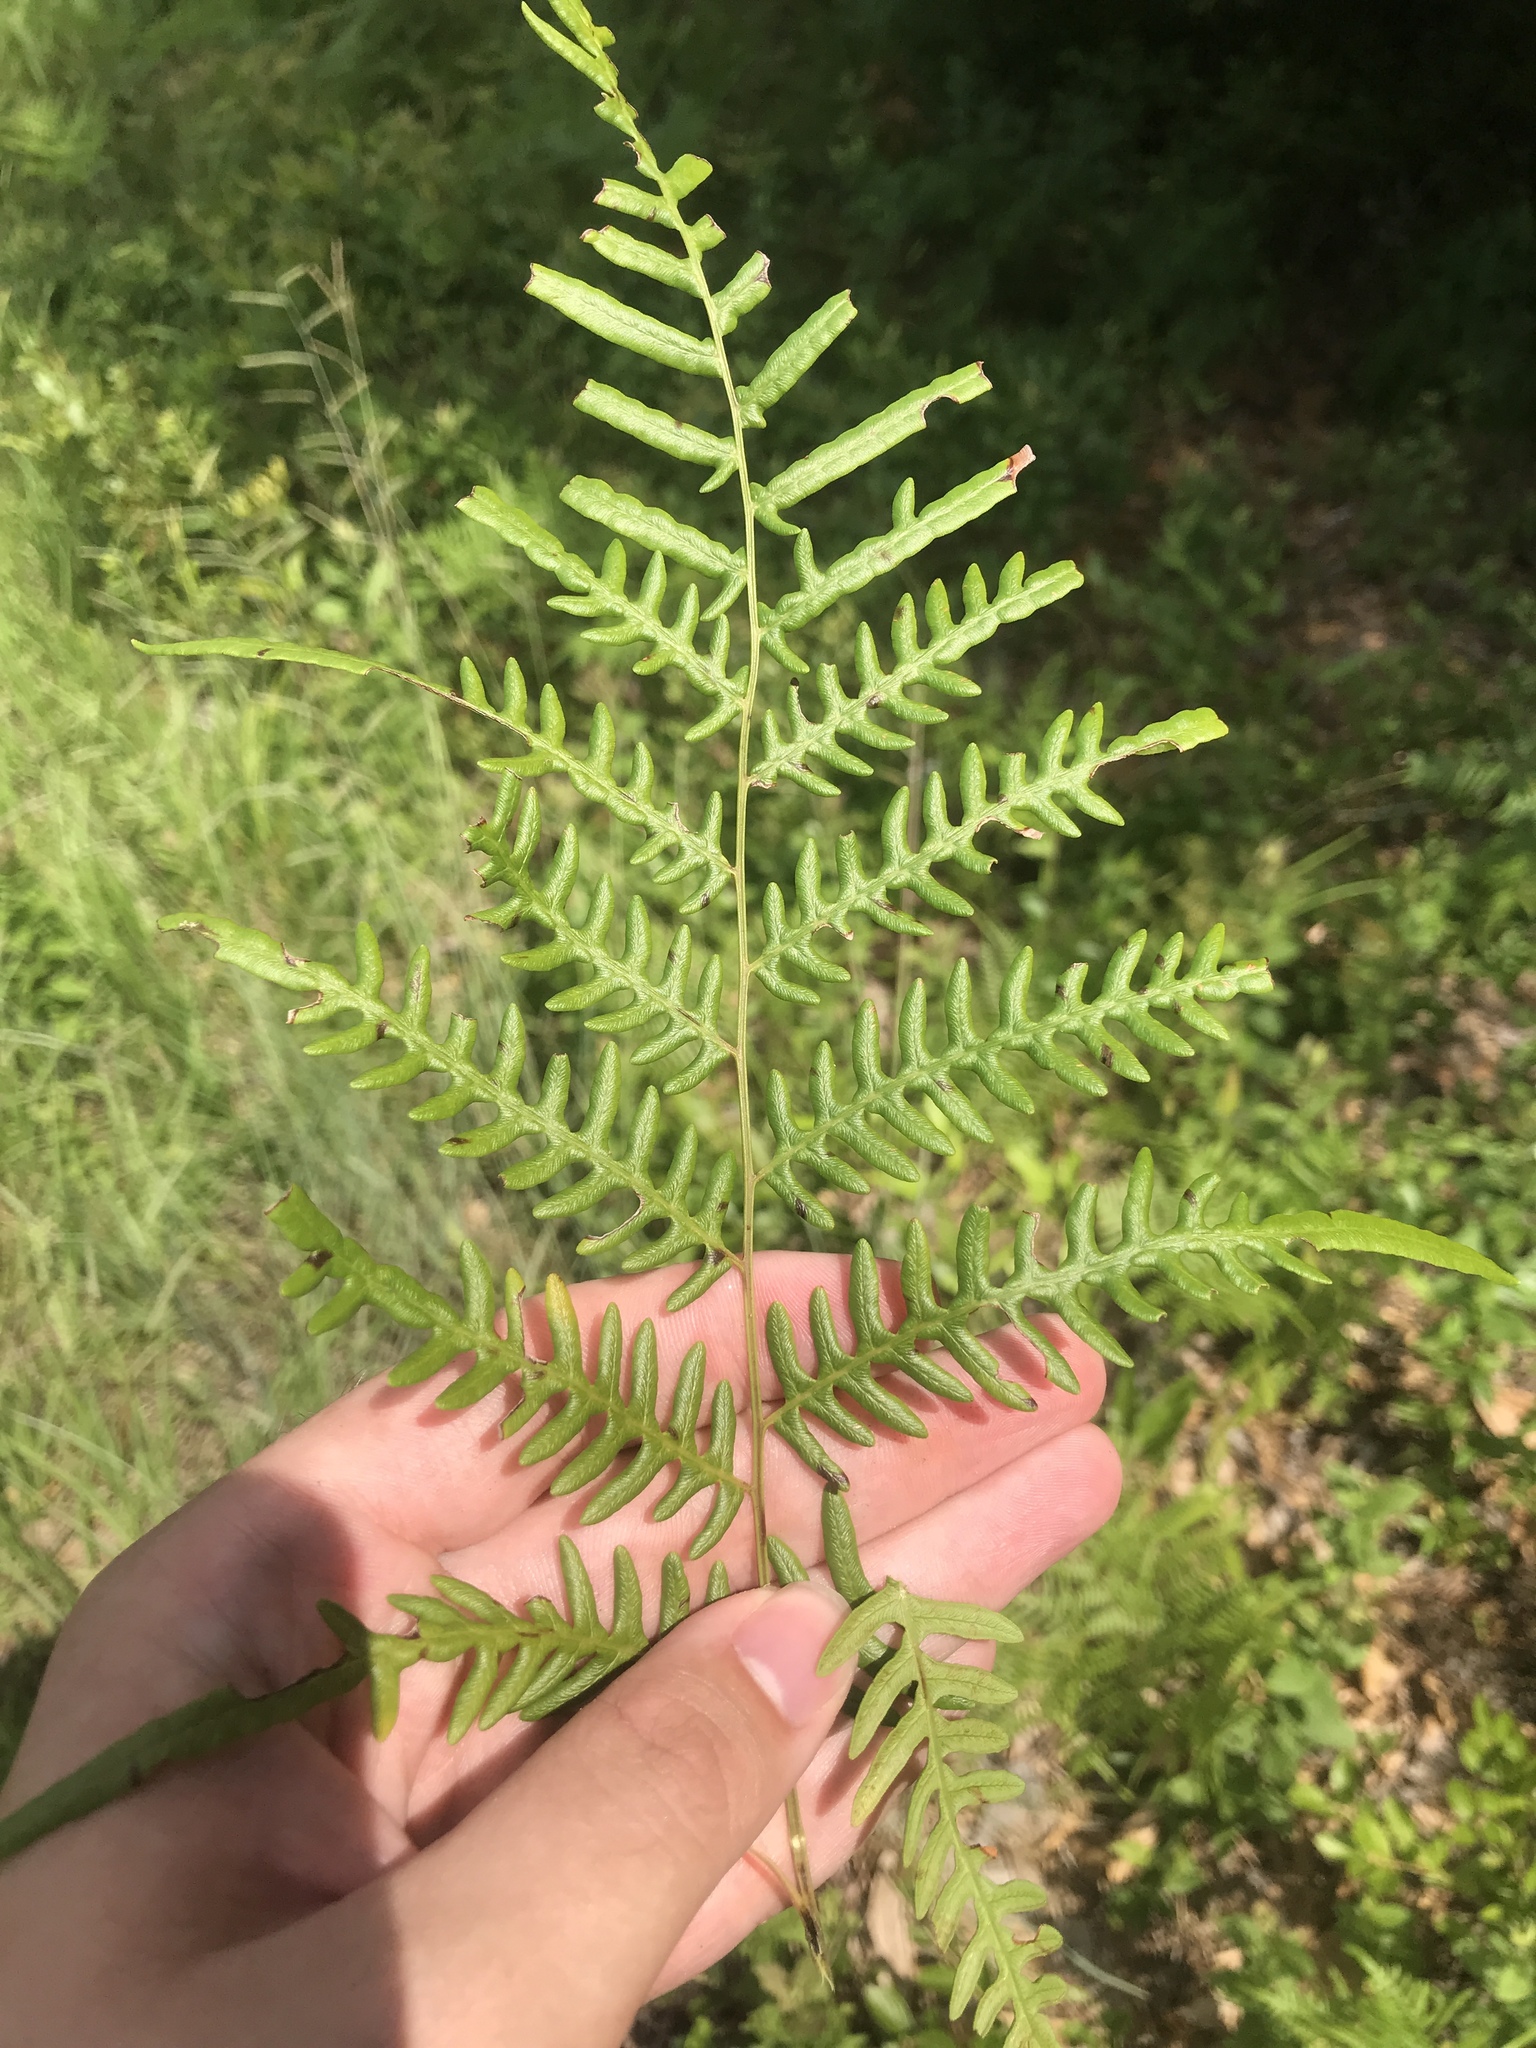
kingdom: Plantae
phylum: Tracheophyta
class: Polypodiopsida
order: Polypodiales
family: Dennstaedtiaceae
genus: Pteridium
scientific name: Pteridium aquilinum
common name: Bracken
